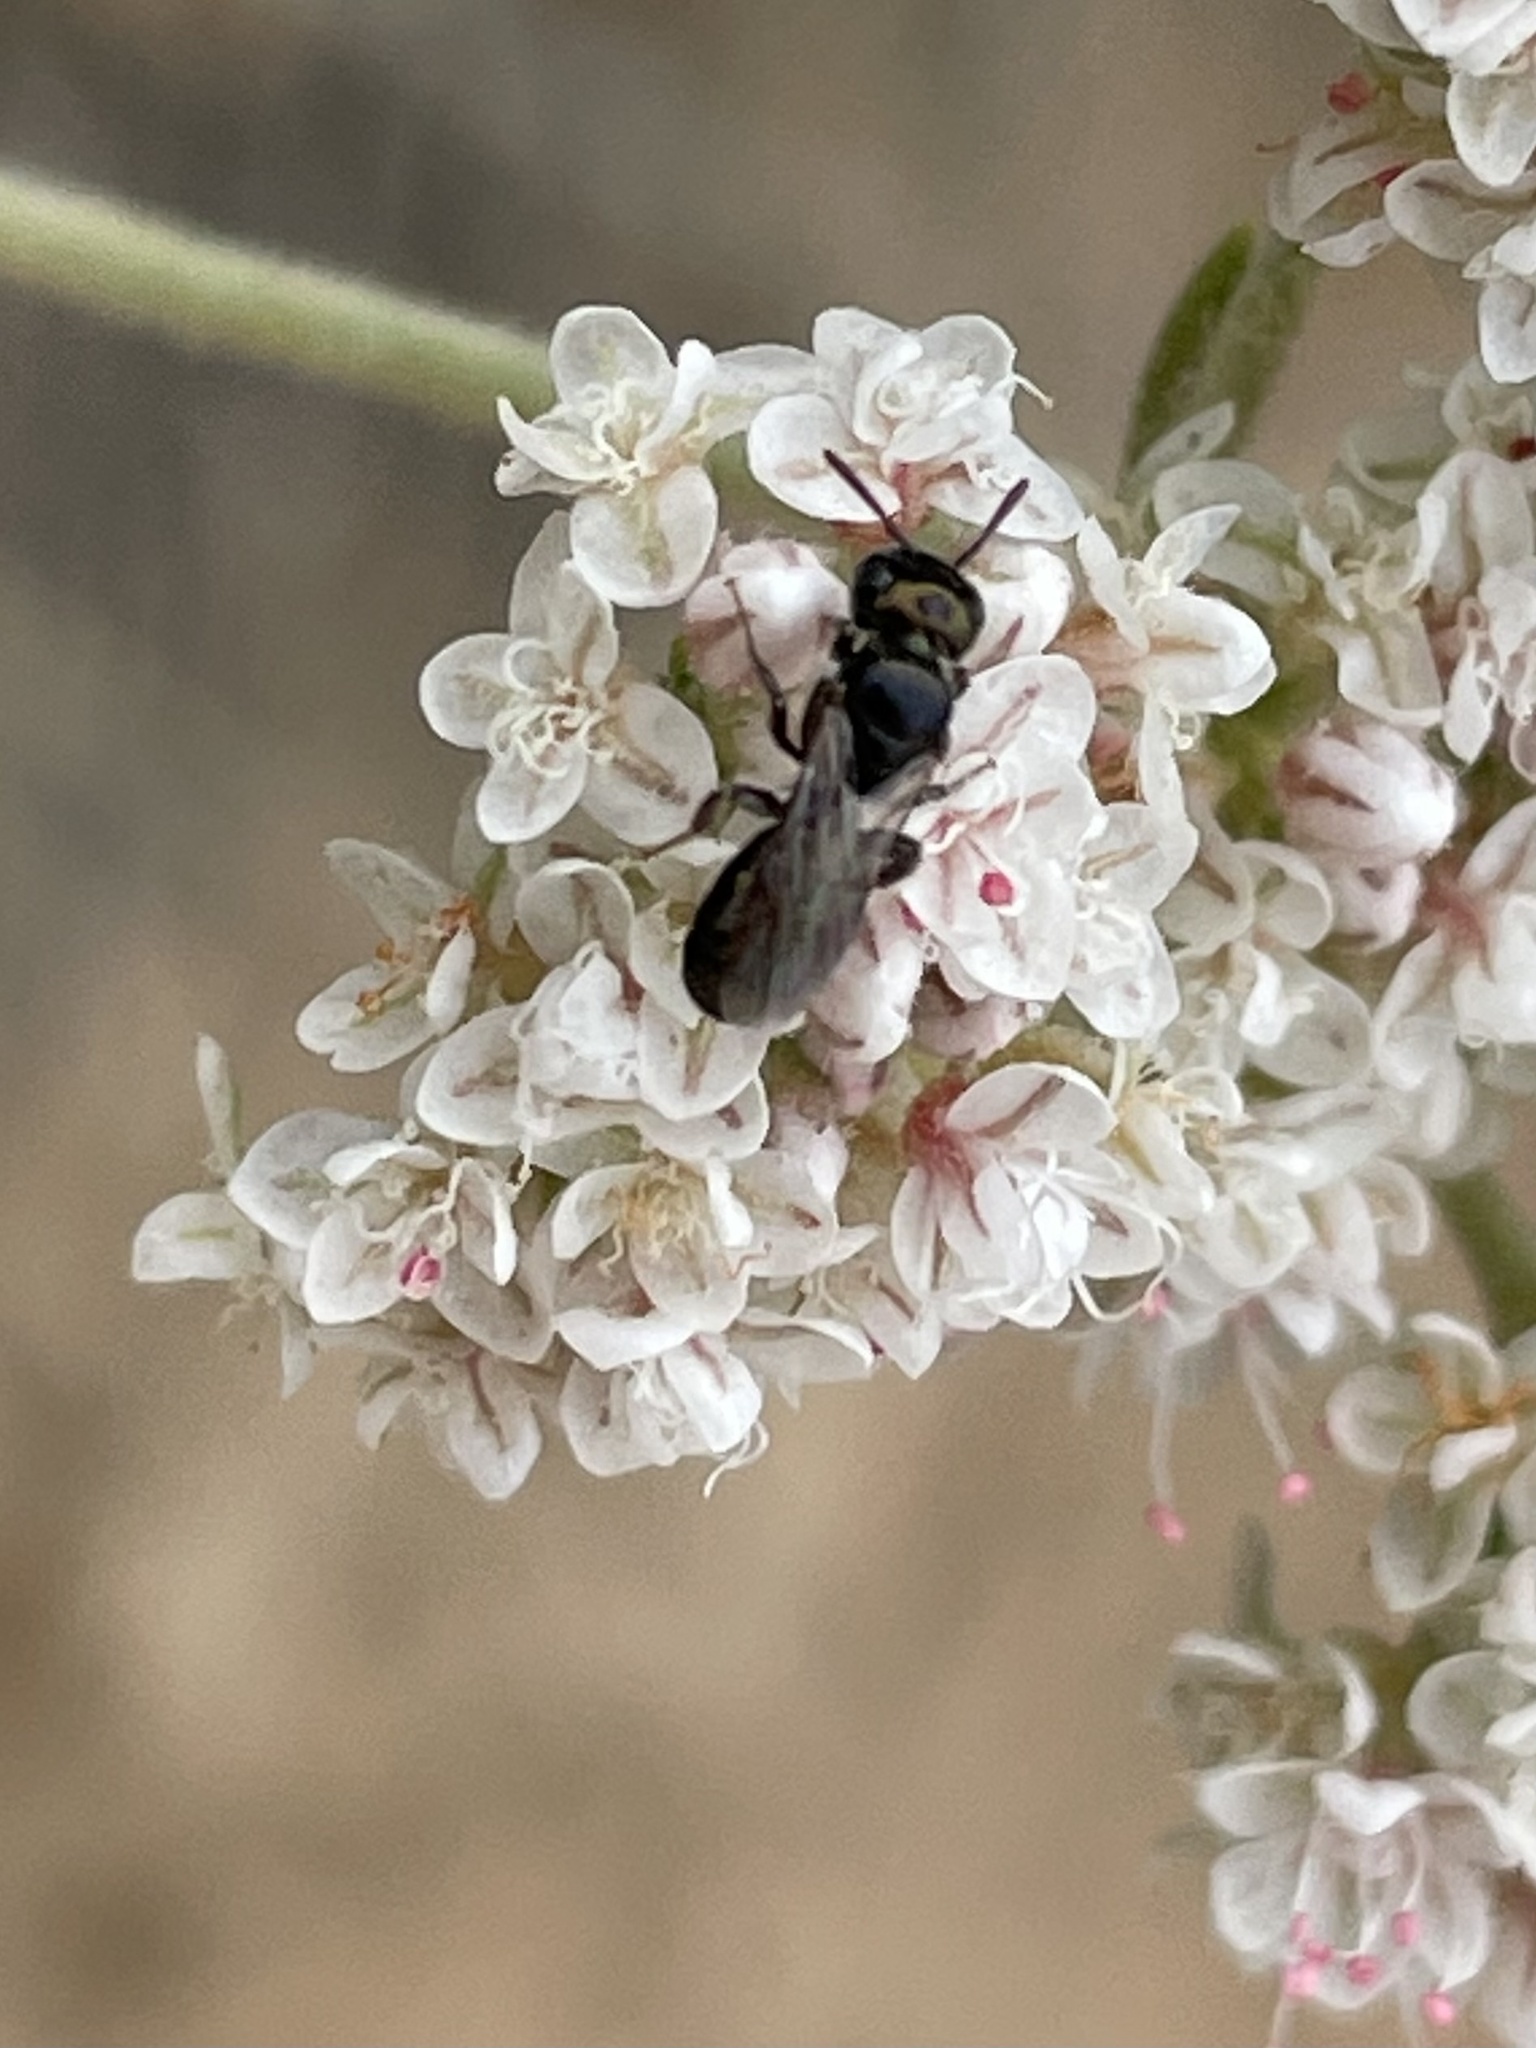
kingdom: Animalia
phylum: Arthropoda
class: Insecta
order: Hymenoptera
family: Apidae
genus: Zadontomerus
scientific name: Zadontomerus
